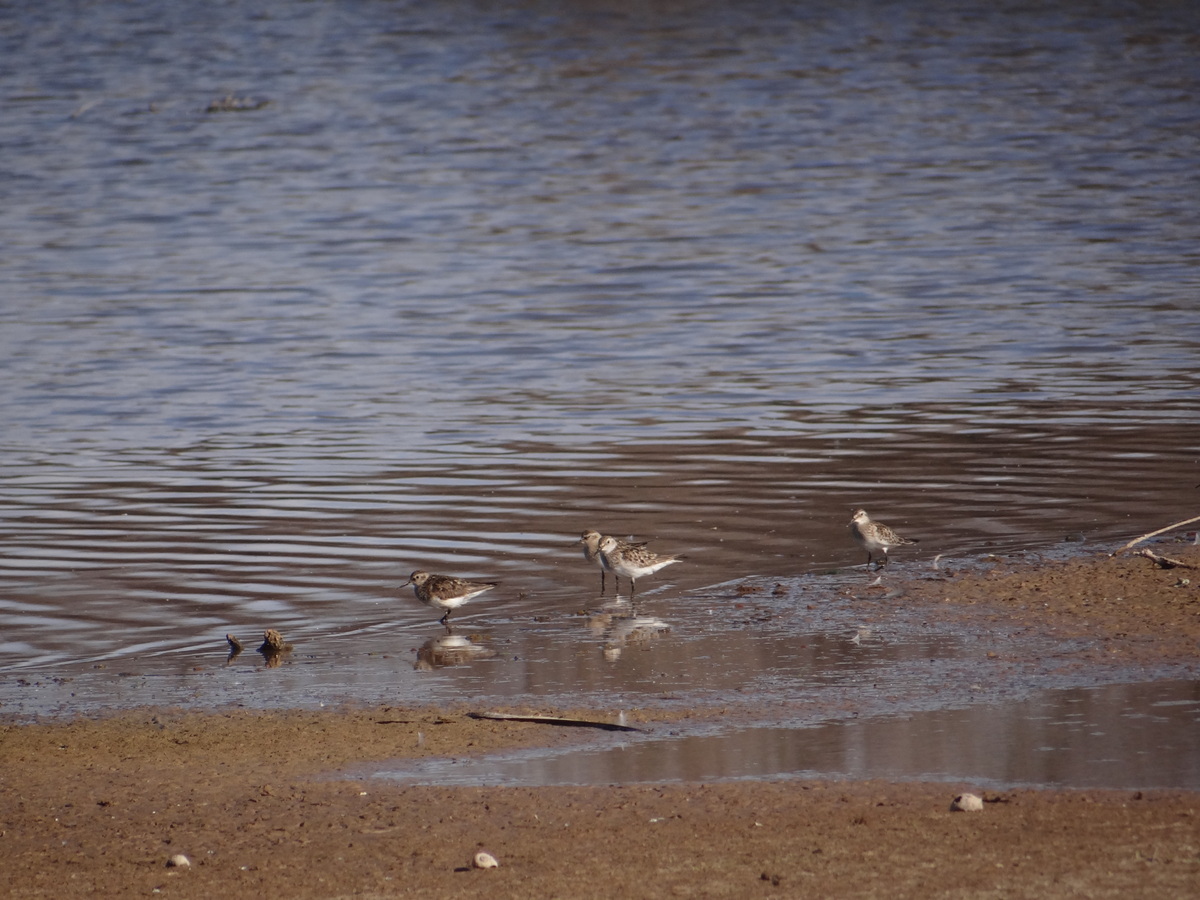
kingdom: Animalia
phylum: Chordata
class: Aves
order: Charadriiformes
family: Scolopacidae
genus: Calidris
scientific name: Calidris fuscicollis
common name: White-rumped sandpiper
